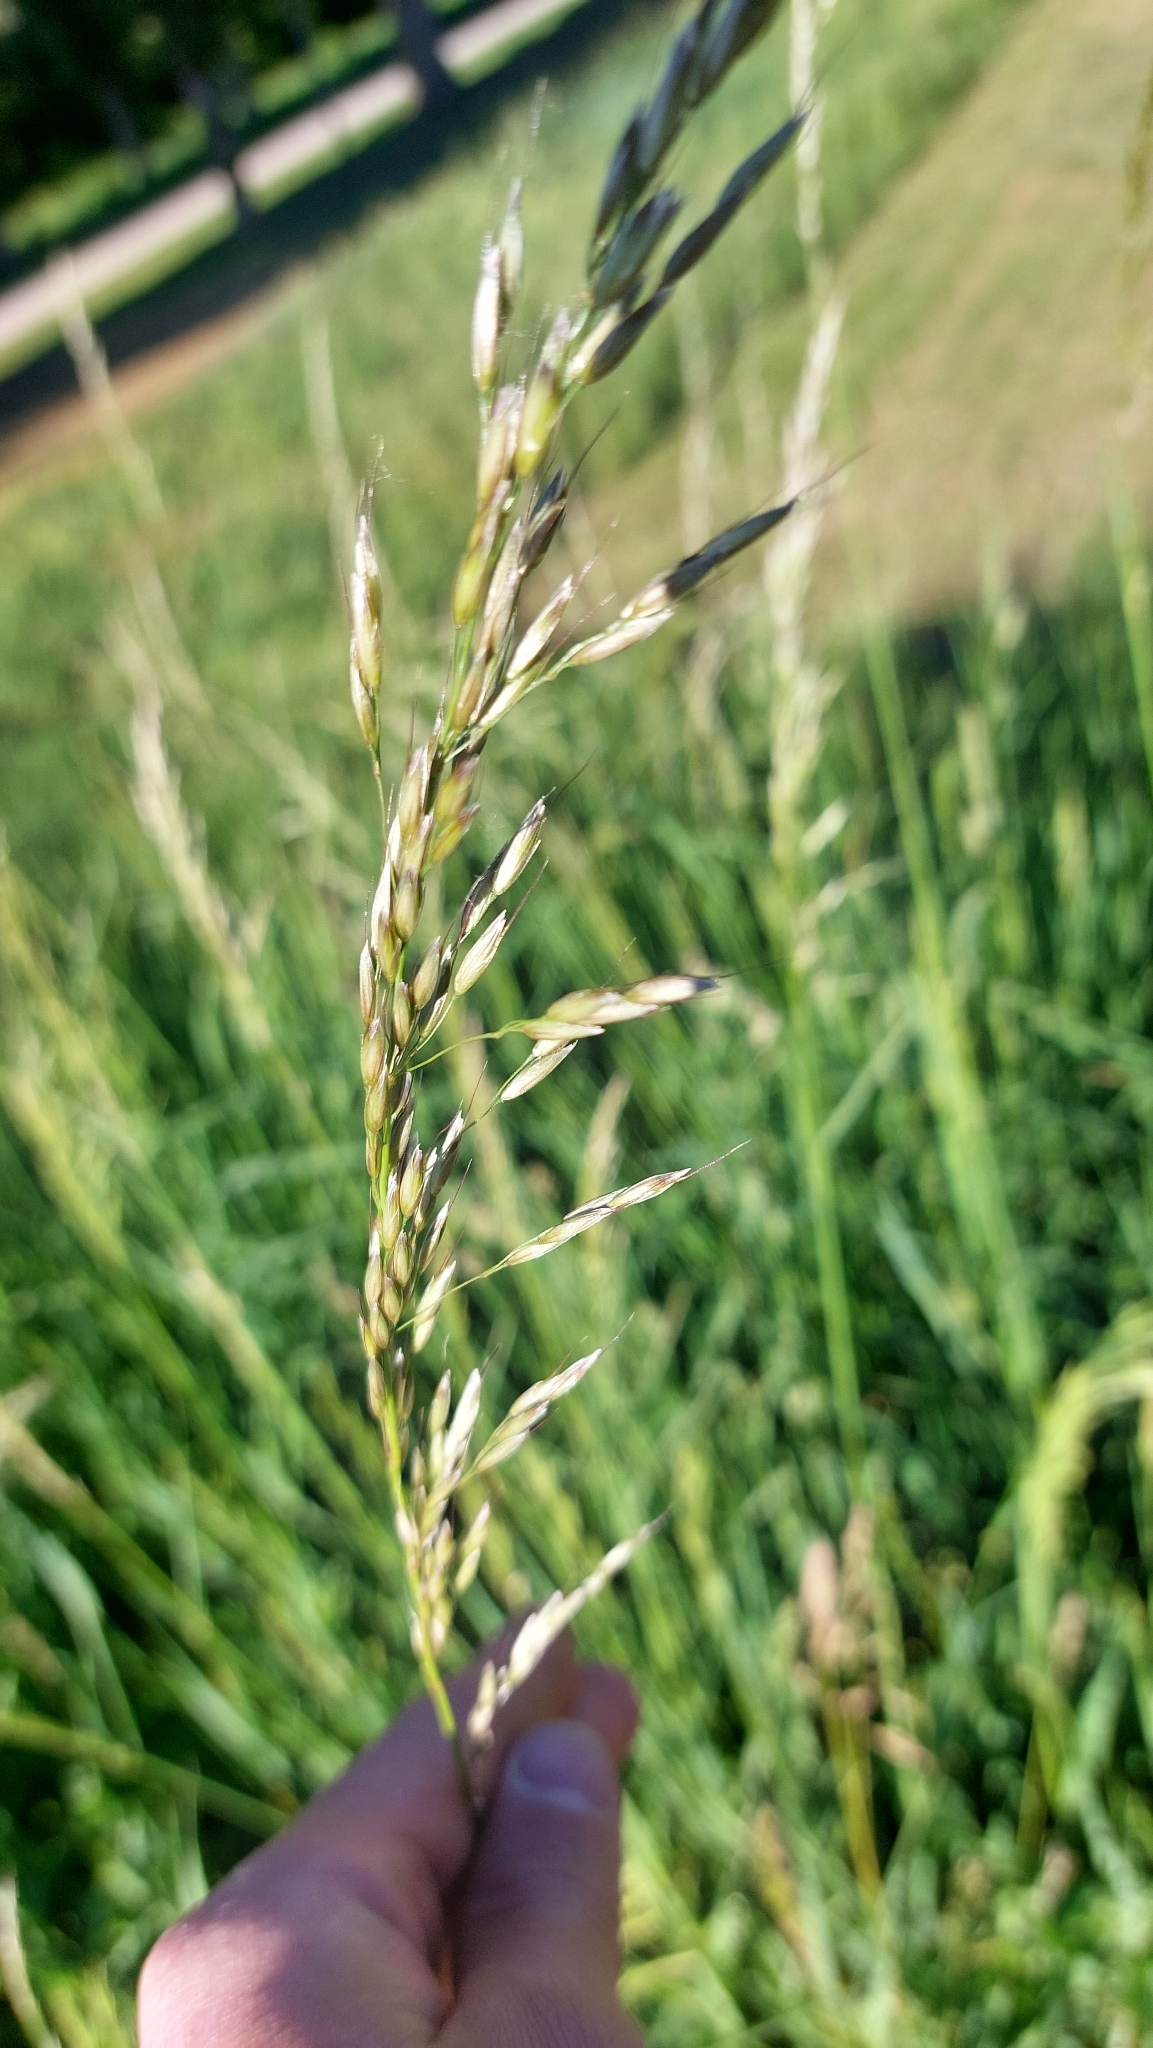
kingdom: Plantae
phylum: Tracheophyta
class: Liliopsida
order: Poales
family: Poaceae
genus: Arrhenatherum
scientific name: Arrhenatherum elatius
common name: Tall oatgrass
